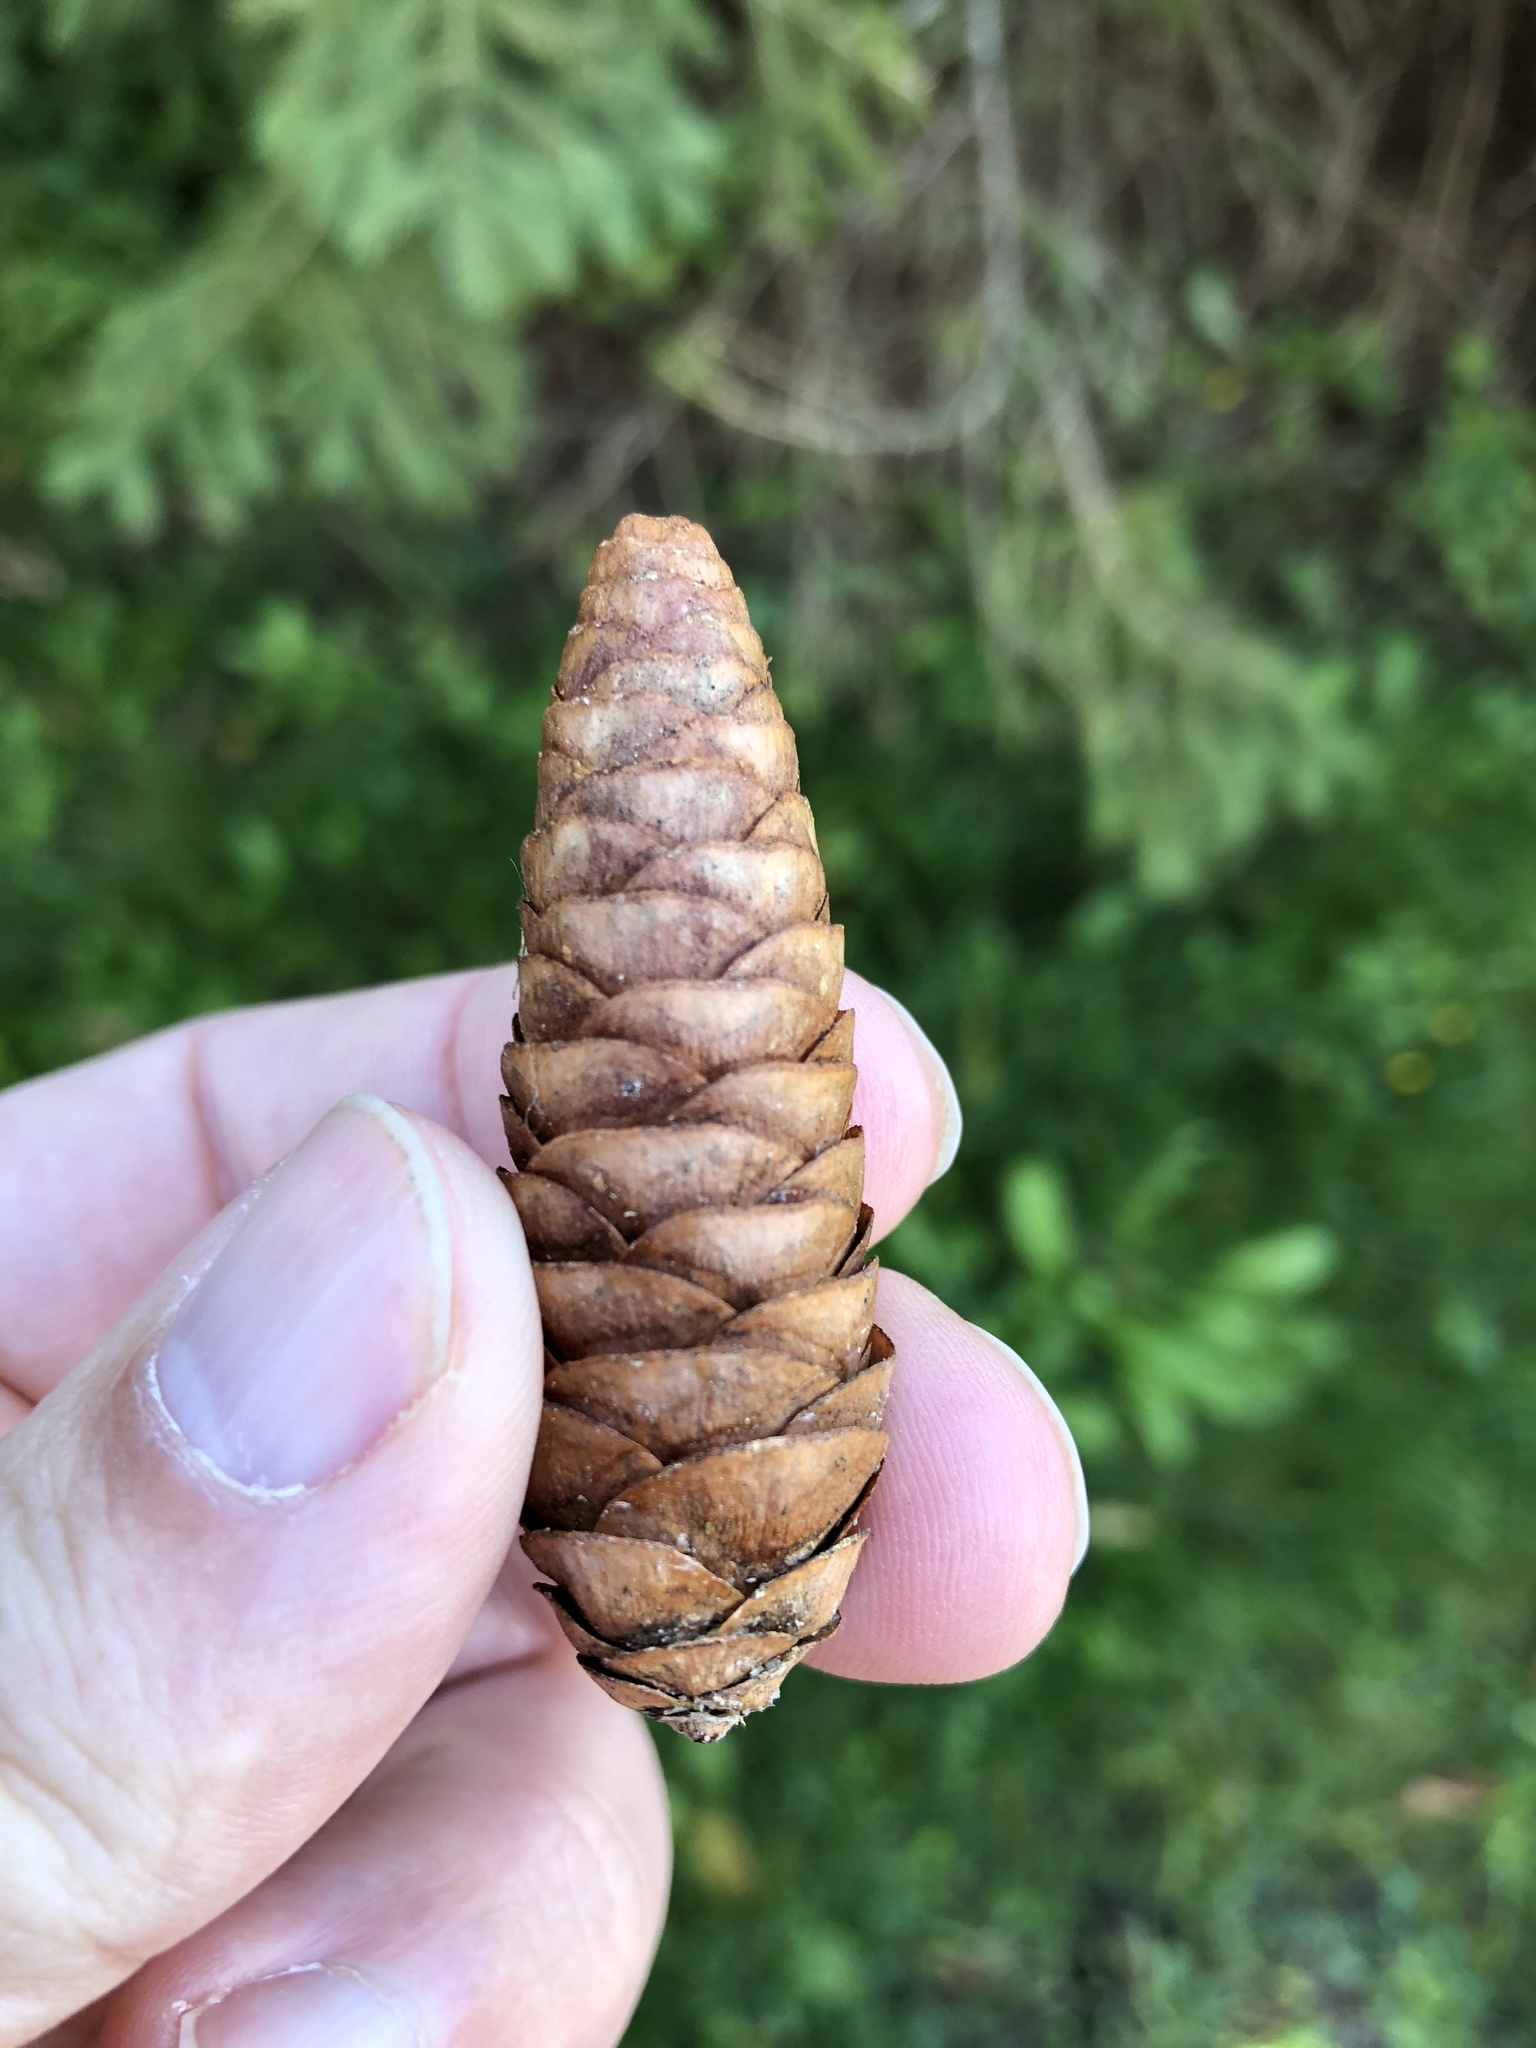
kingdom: Plantae
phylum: Tracheophyta
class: Pinopsida
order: Pinales
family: Pinaceae
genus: Picea
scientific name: Picea glauca
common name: White spruce
